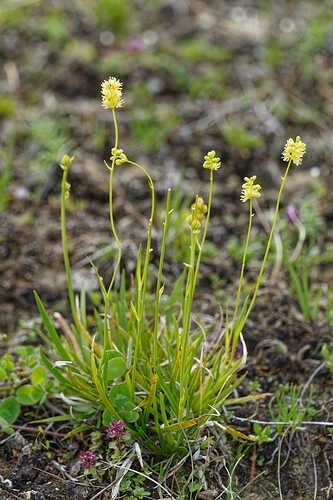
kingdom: Plantae
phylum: Tracheophyta
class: Liliopsida
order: Alismatales
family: Tofieldiaceae
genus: Tofieldia
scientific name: Tofieldia calyculata
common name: German-asphodel
